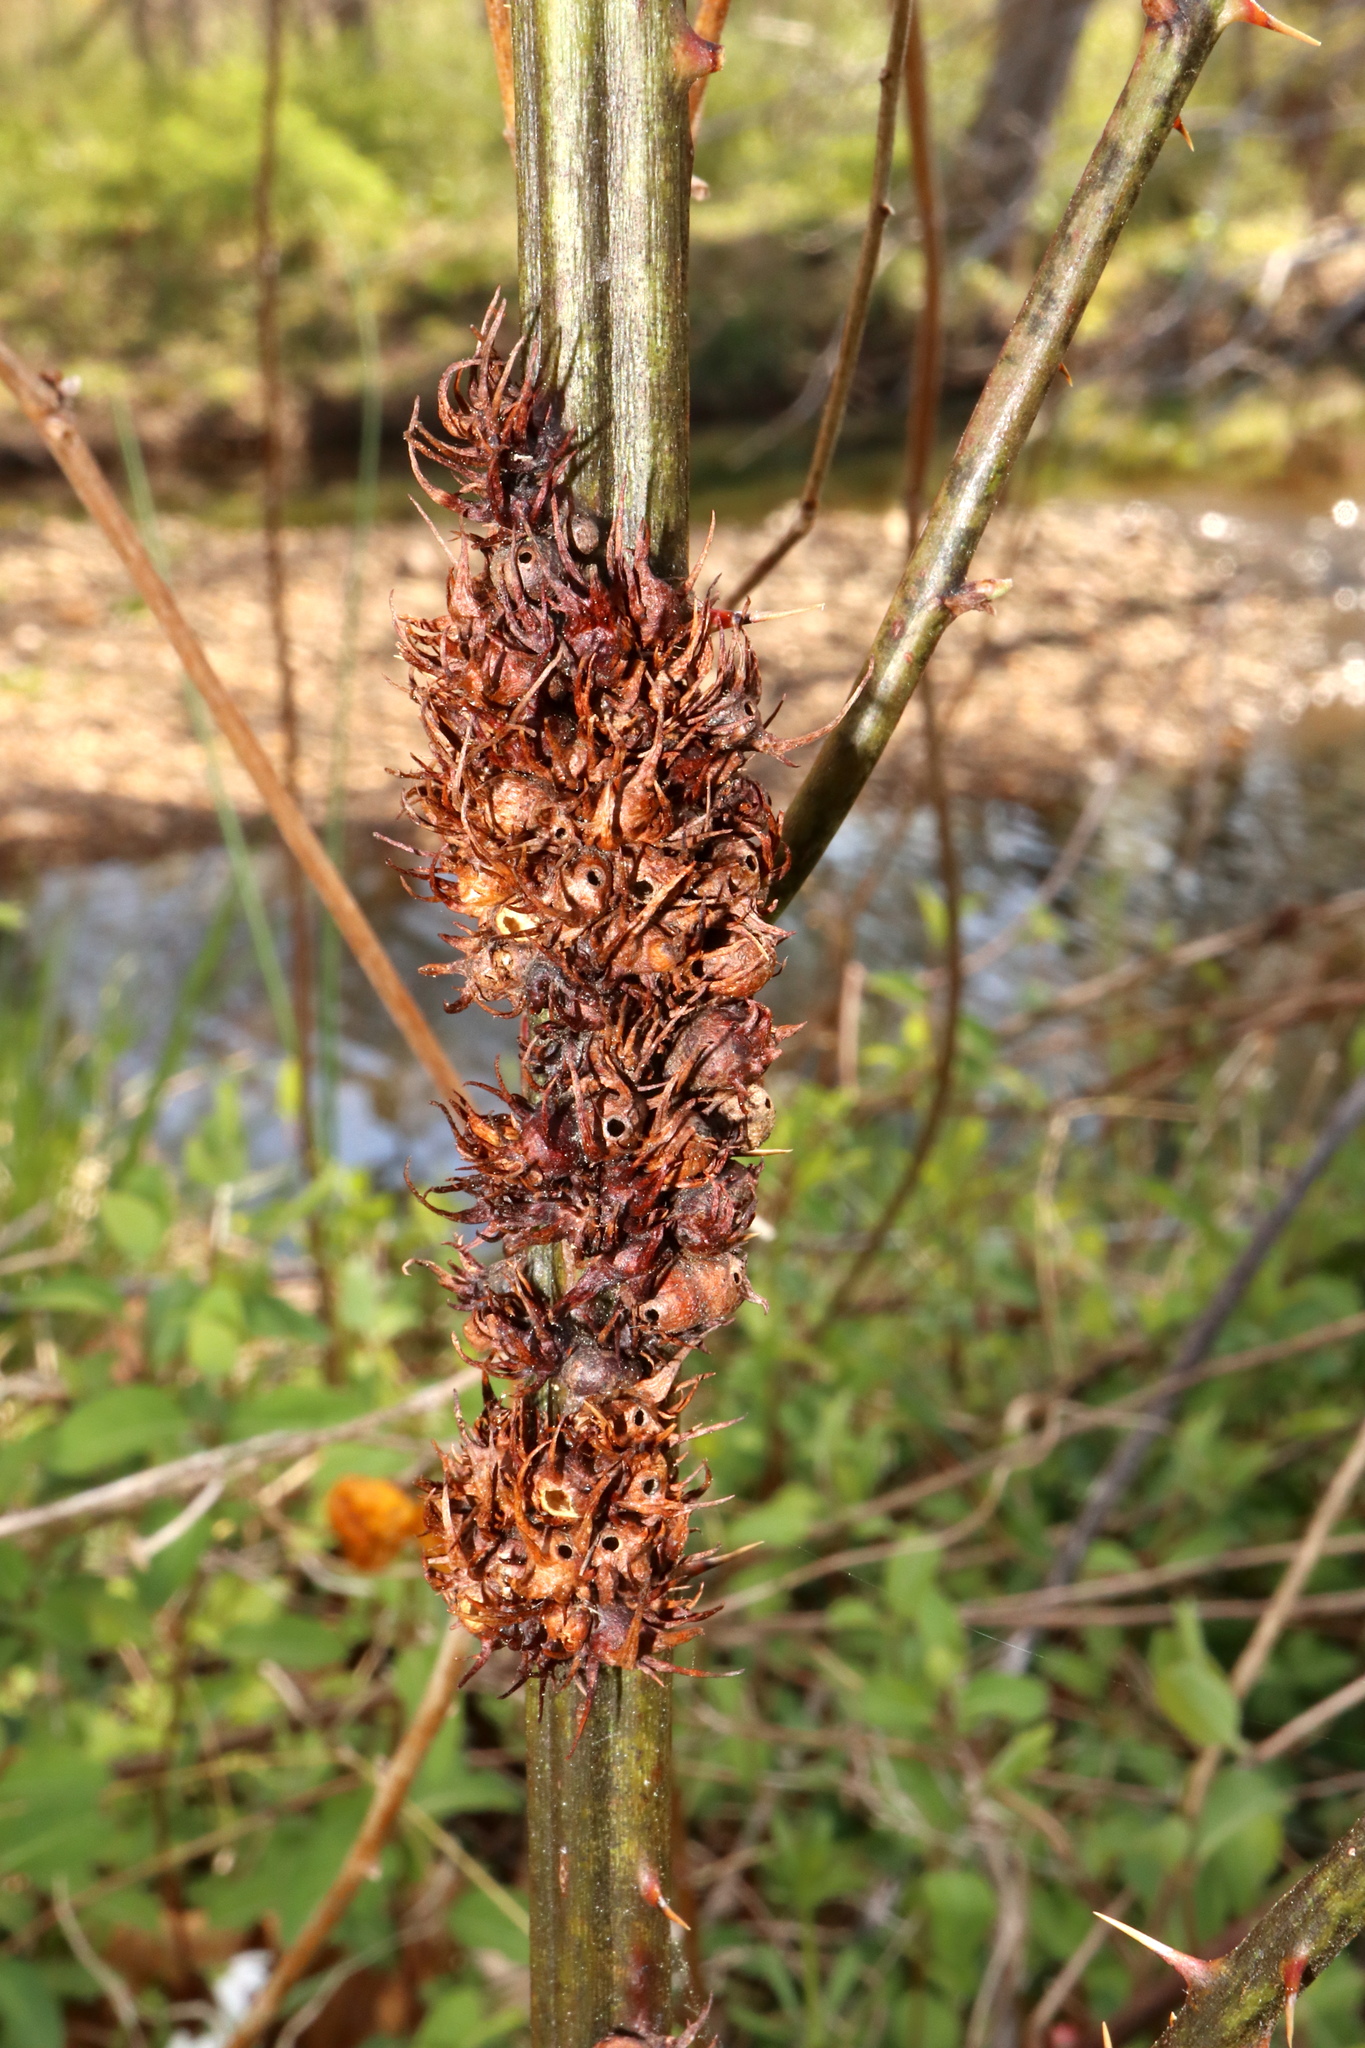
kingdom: Animalia
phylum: Arthropoda
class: Insecta
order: Hymenoptera
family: Cynipidae
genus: Diastrophus
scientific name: Diastrophus
